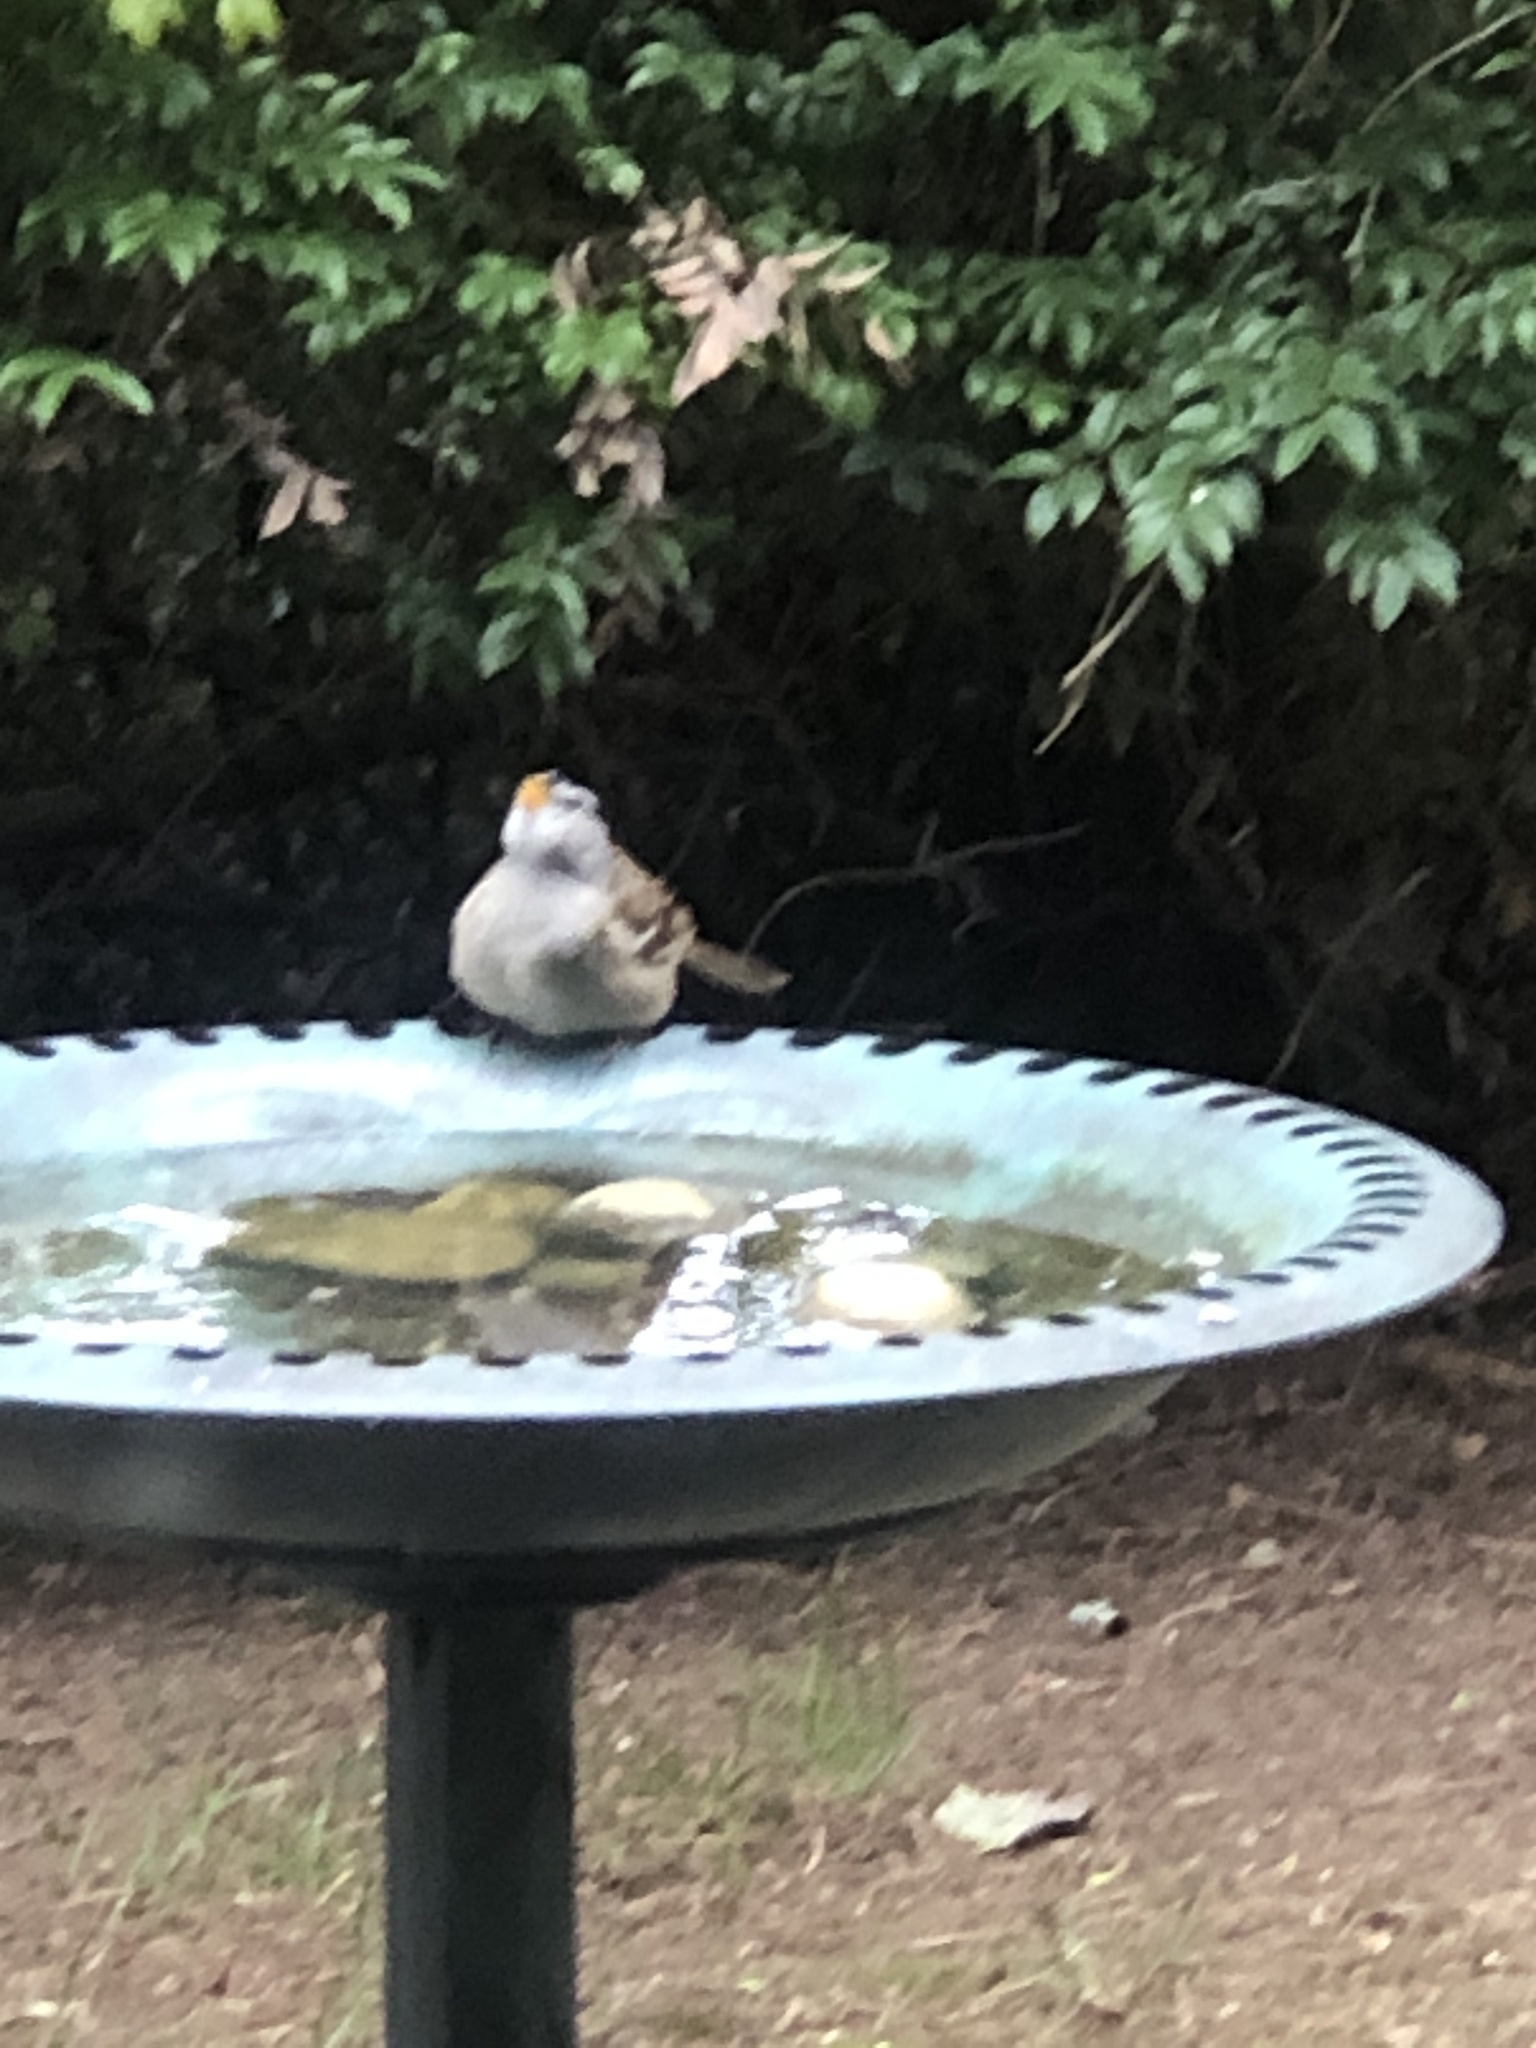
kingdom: Animalia
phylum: Chordata
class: Aves
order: Passeriformes
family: Passerellidae
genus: Zonotrichia
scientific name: Zonotrichia leucophrys
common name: White-crowned sparrow
